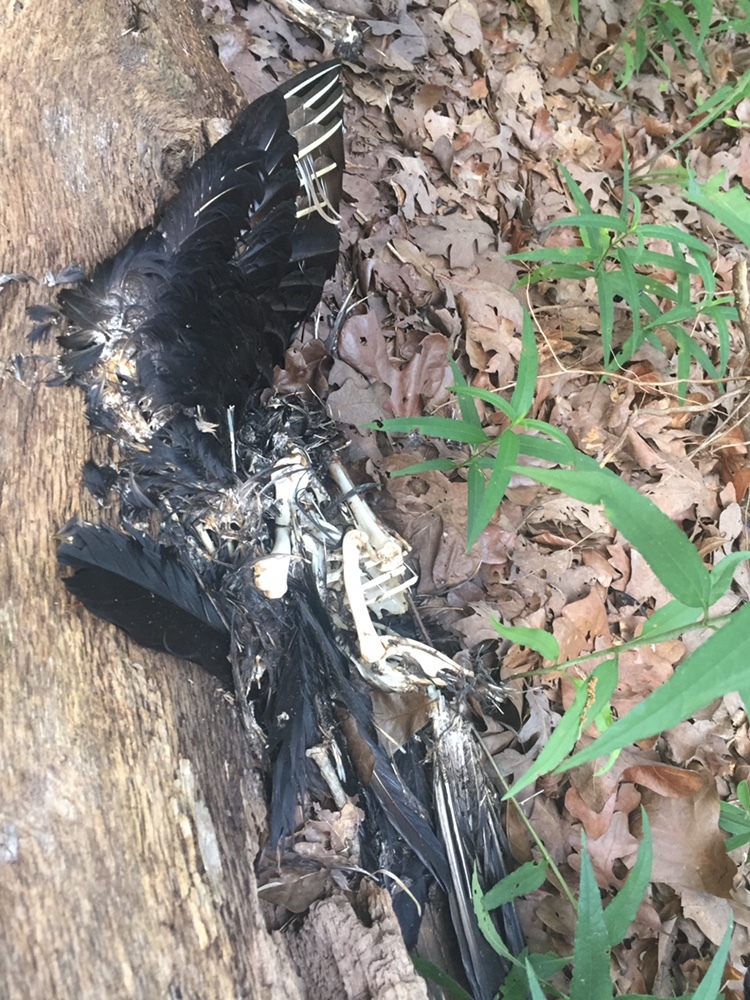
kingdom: Animalia
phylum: Chordata
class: Aves
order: Accipitriformes
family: Cathartidae
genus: Coragyps
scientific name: Coragyps atratus
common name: Black vulture
